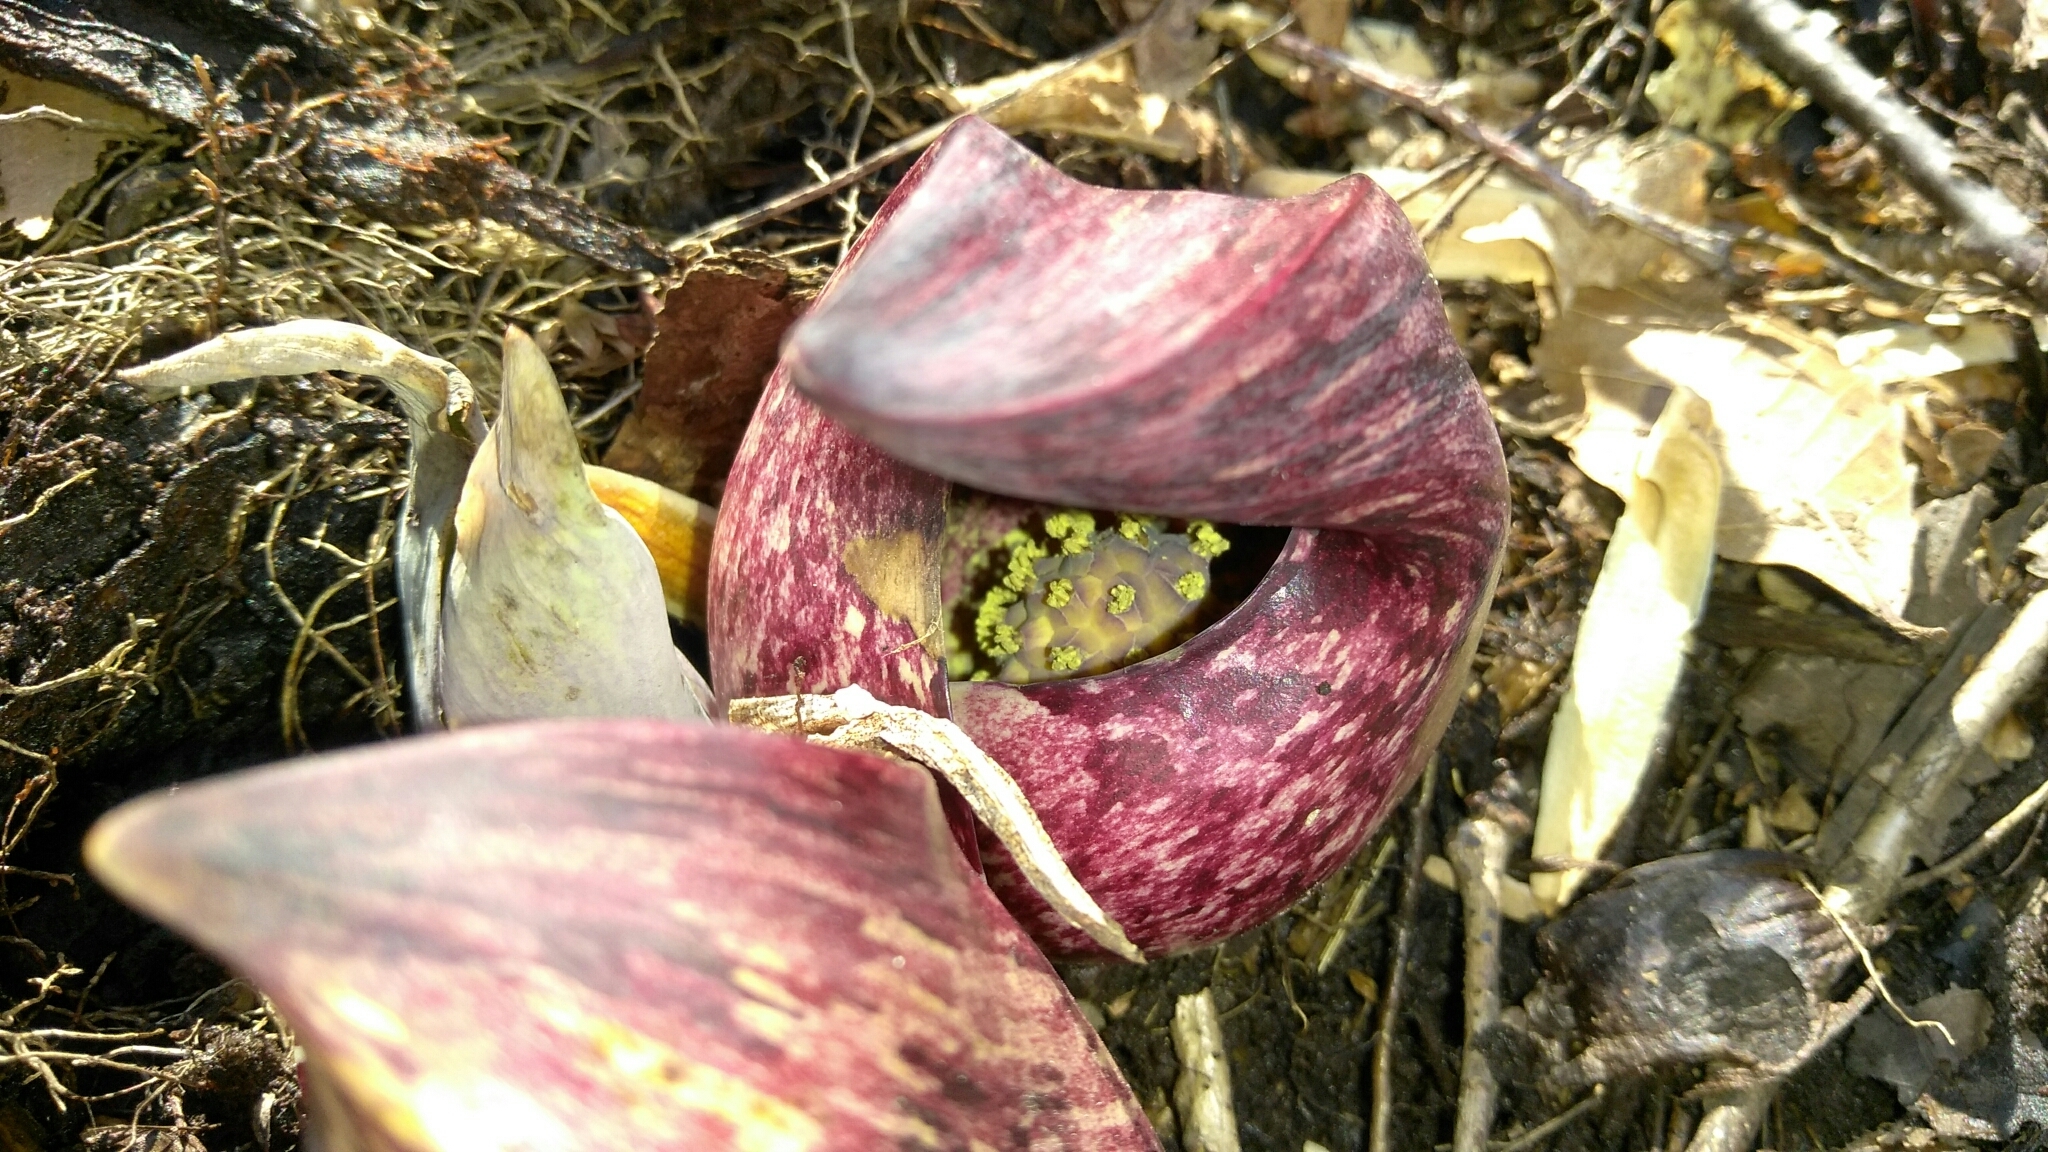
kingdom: Plantae
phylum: Tracheophyta
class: Liliopsida
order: Alismatales
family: Araceae
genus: Symplocarpus
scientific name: Symplocarpus foetidus
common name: Eastern skunk cabbage
